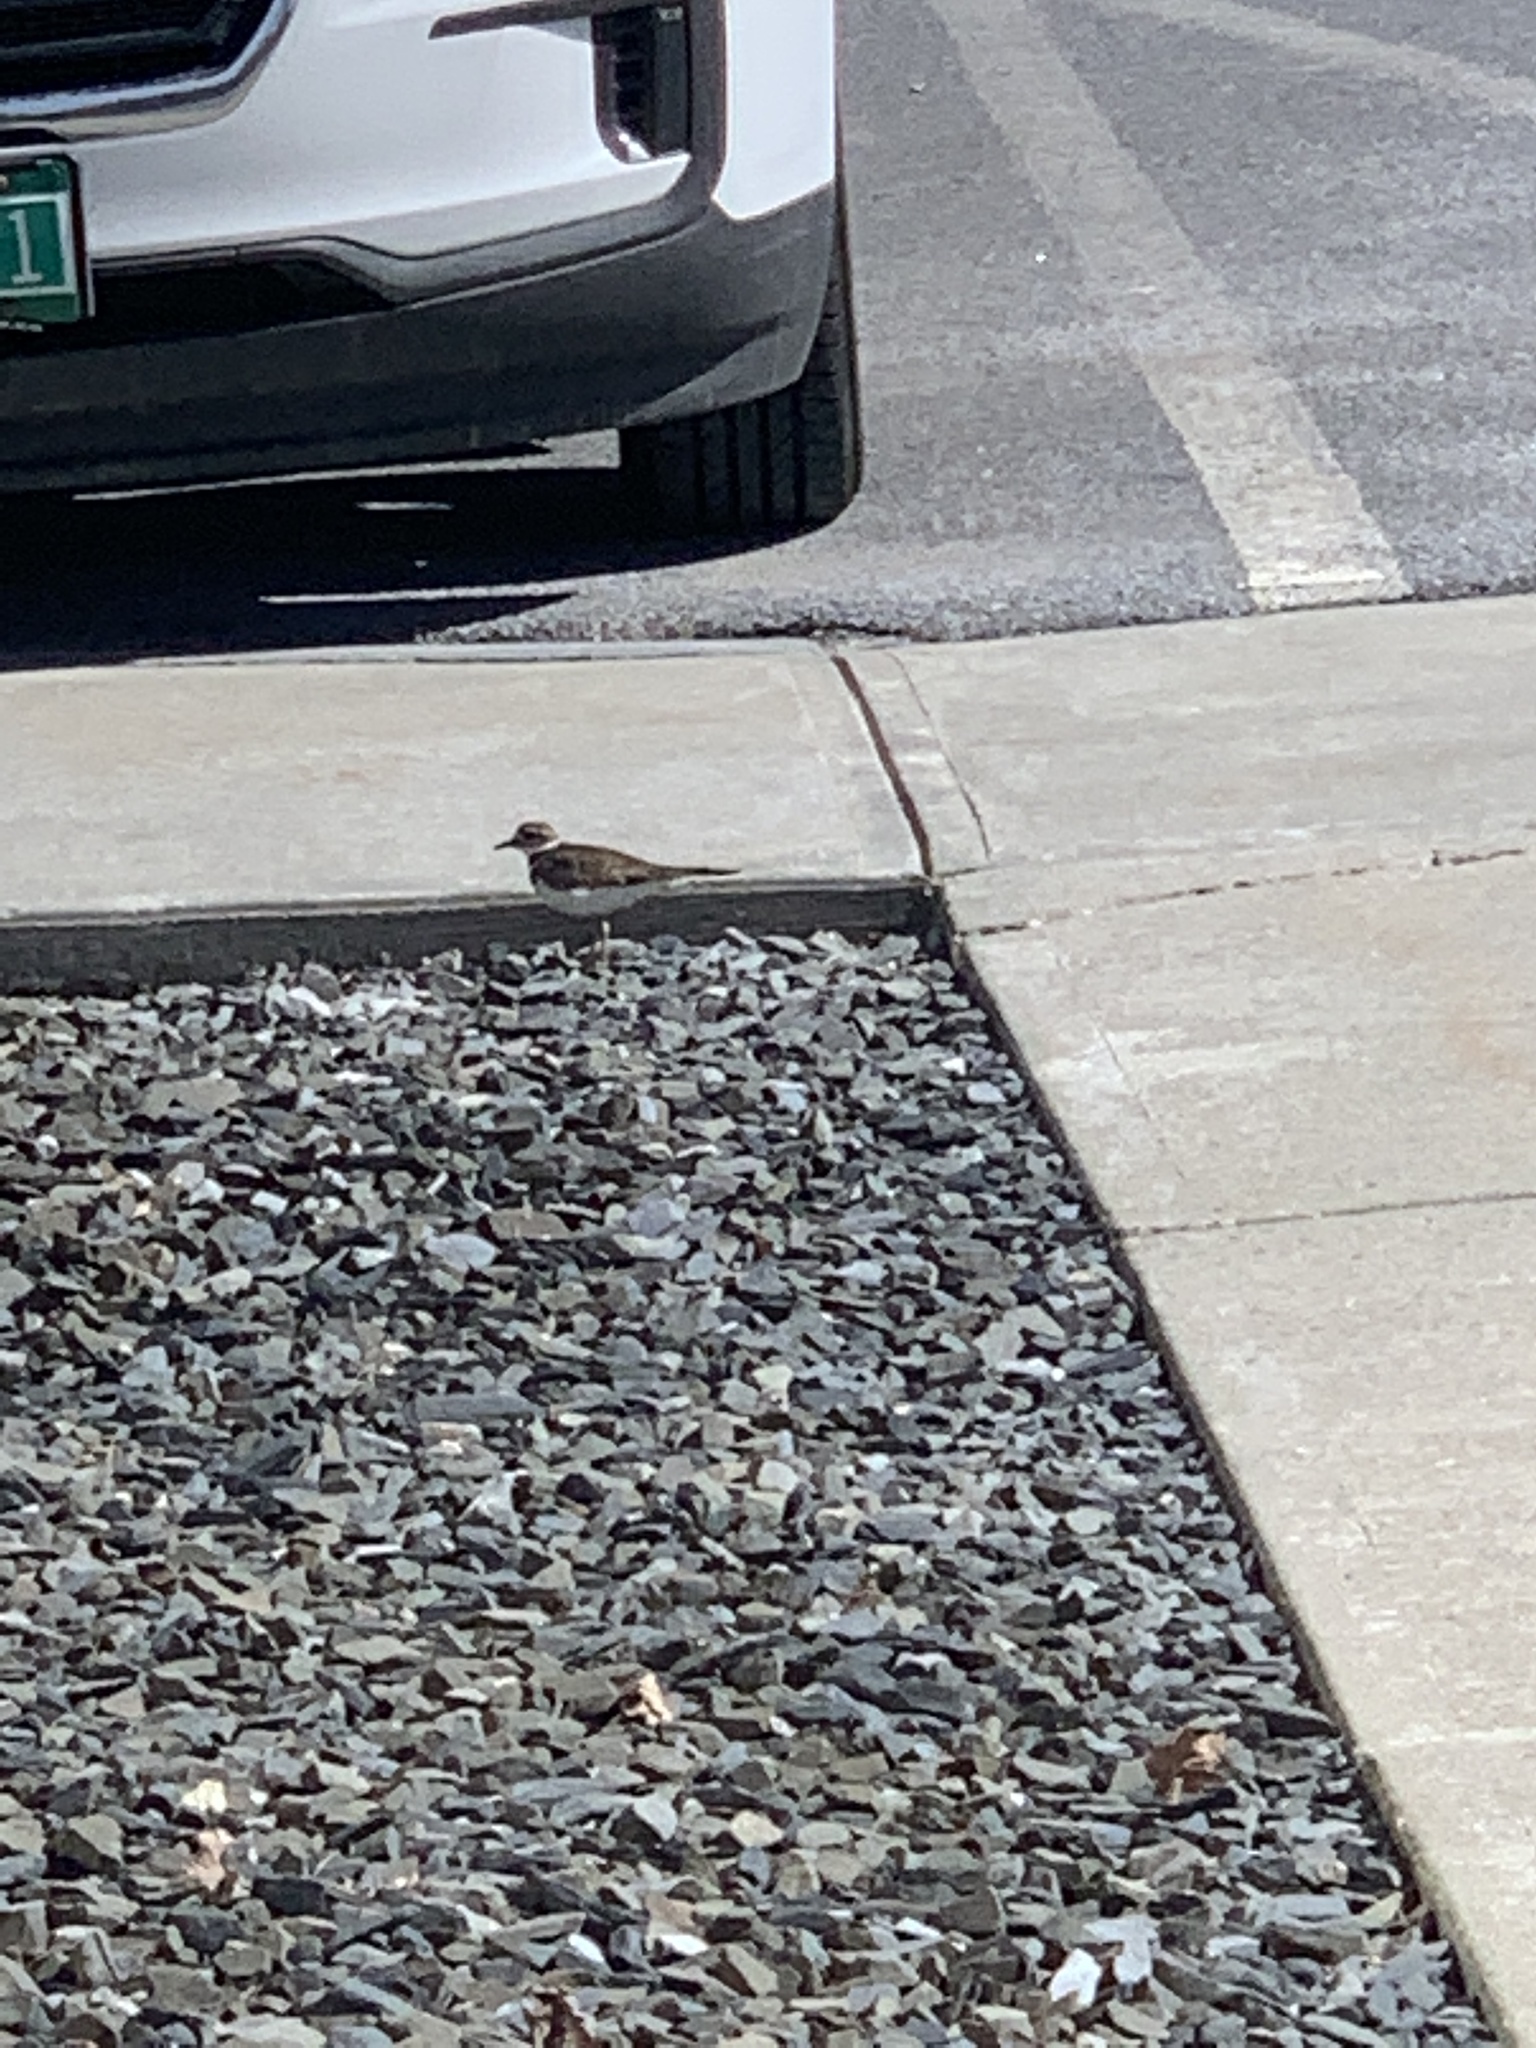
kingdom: Animalia
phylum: Chordata
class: Aves
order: Charadriiformes
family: Charadriidae
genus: Charadrius
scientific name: Charadrius vociferus
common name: Killdeer
